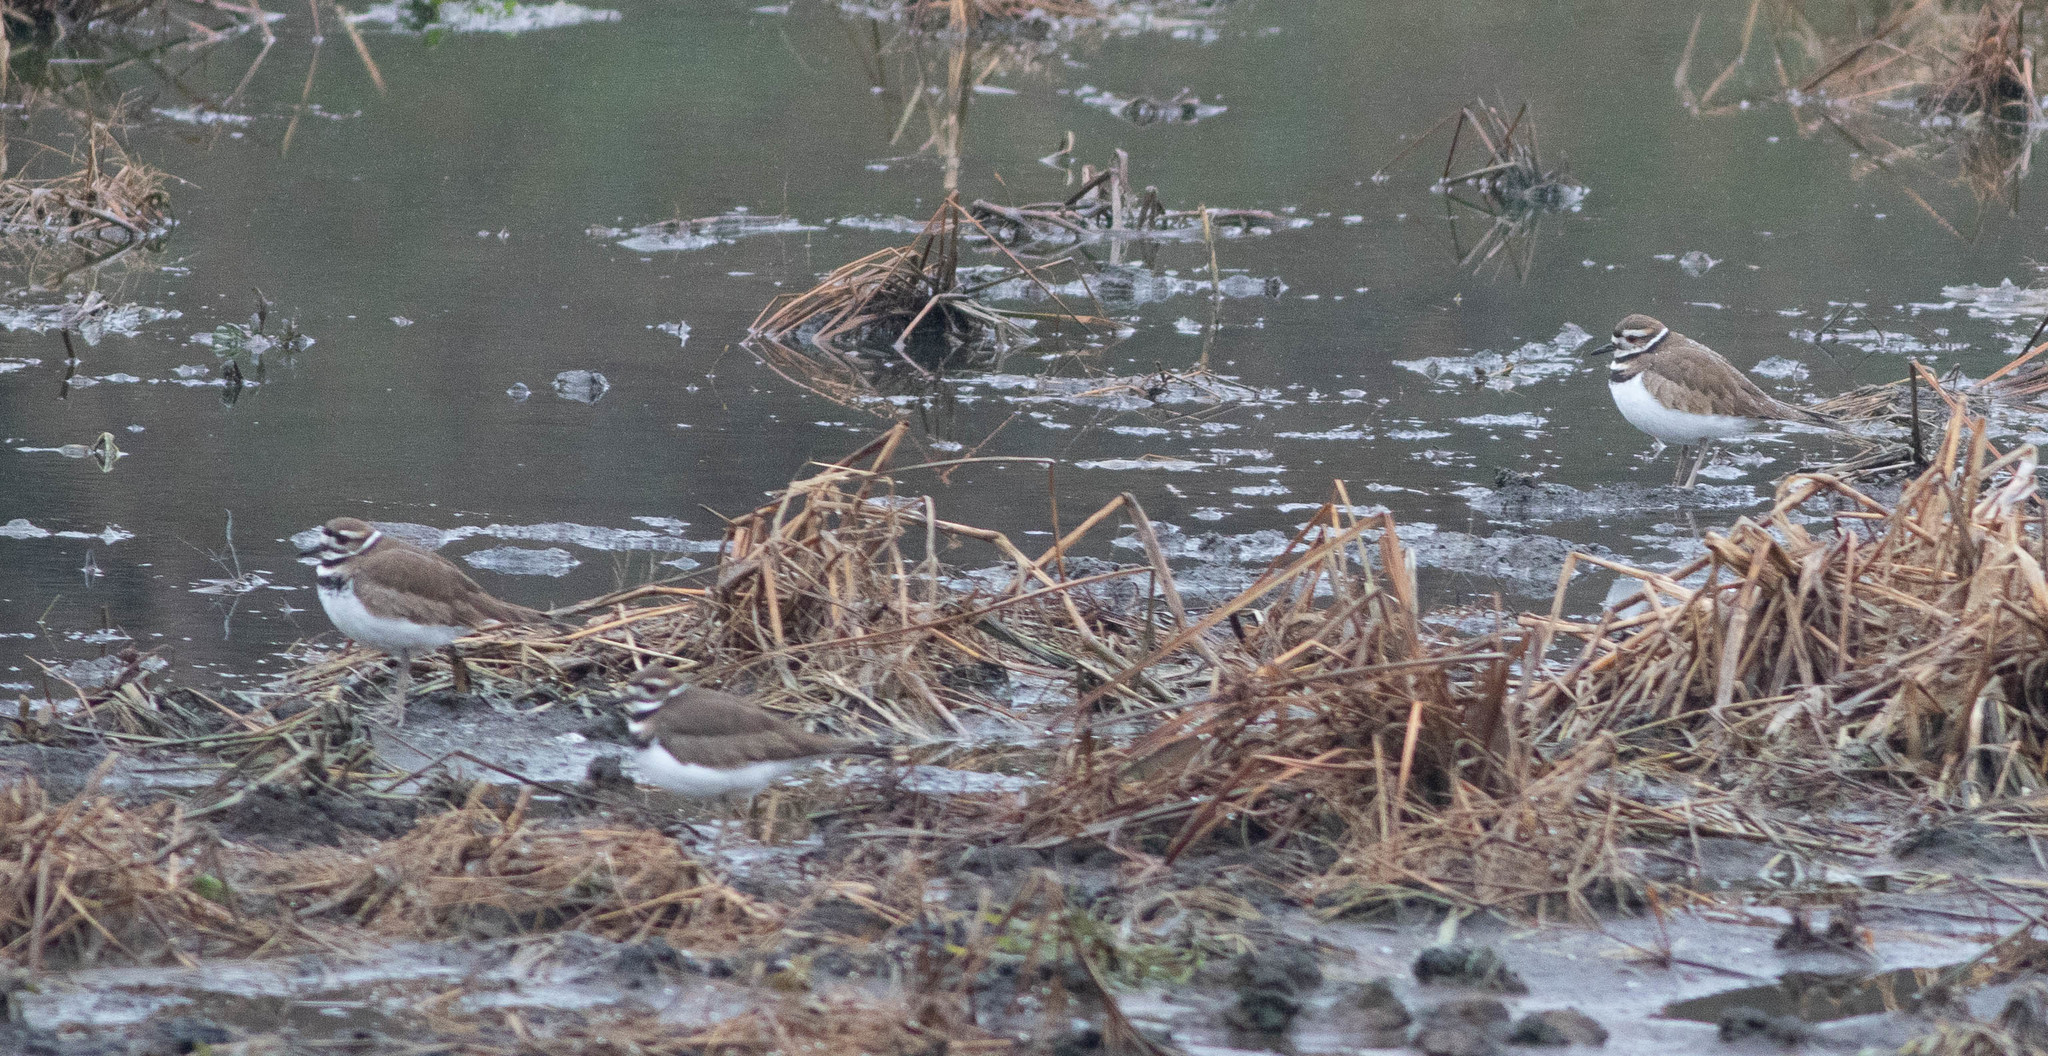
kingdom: Animalia
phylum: Chordata
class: Aves
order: Charadriiformes
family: Charadriidae
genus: Charadrius
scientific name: Charadrius vociferus
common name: Killdeer
